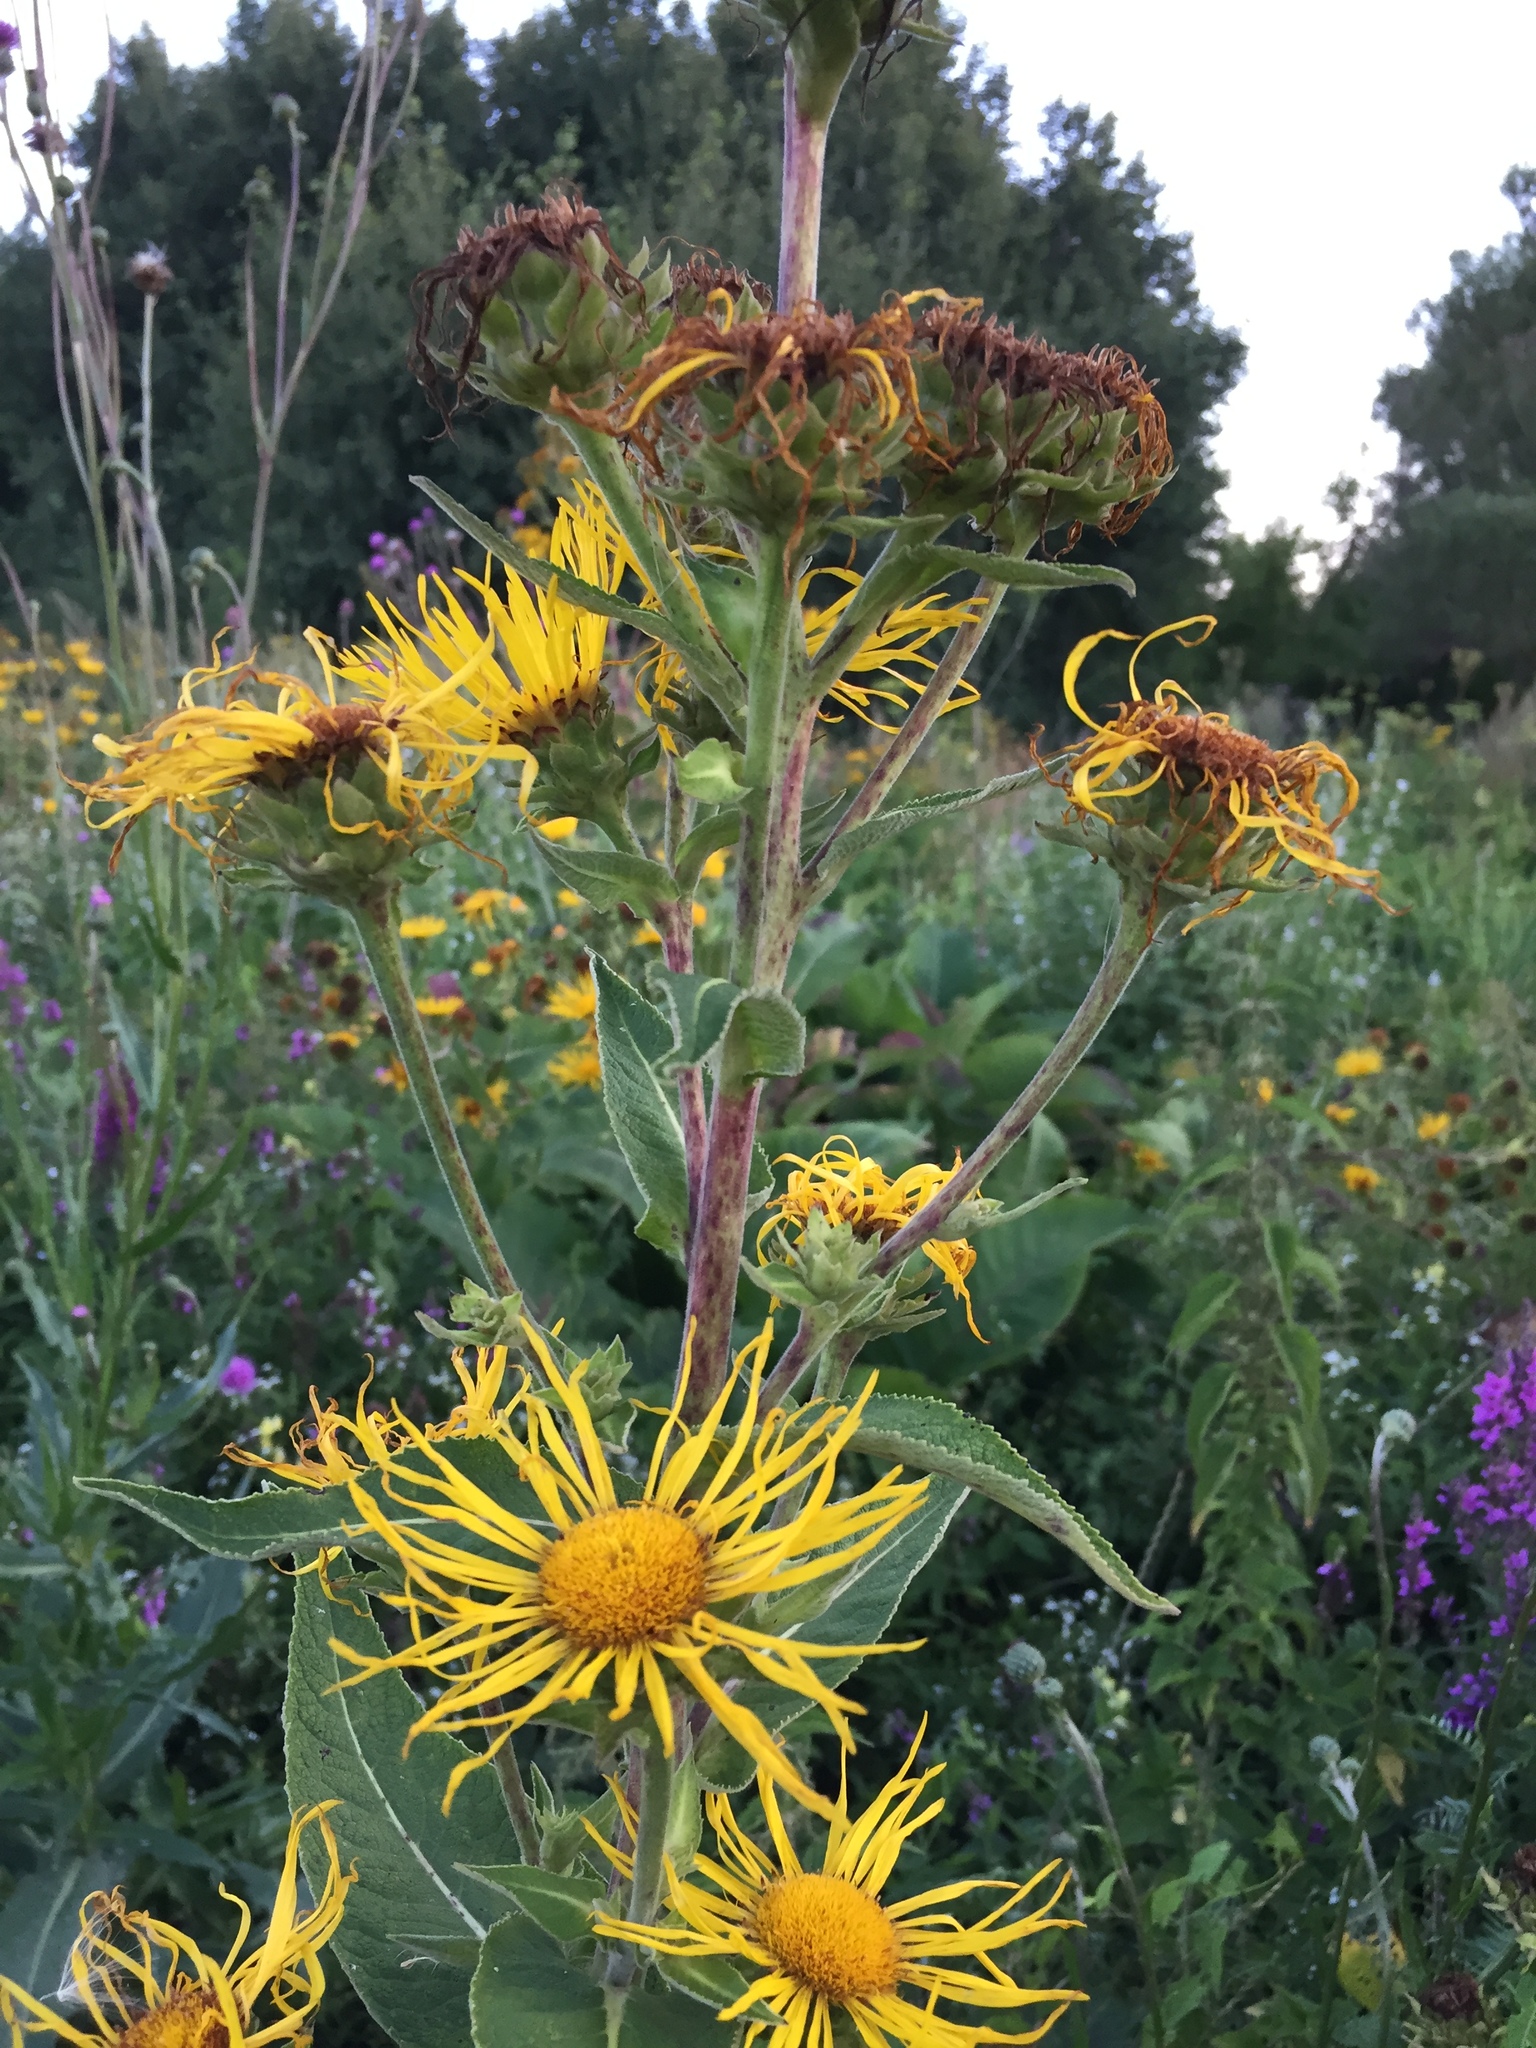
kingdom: Plantae
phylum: Tracheophyta
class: Magnoliopsida
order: Asterales
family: Asteraceae
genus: Inula
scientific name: Inula helenium
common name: Elecampane
